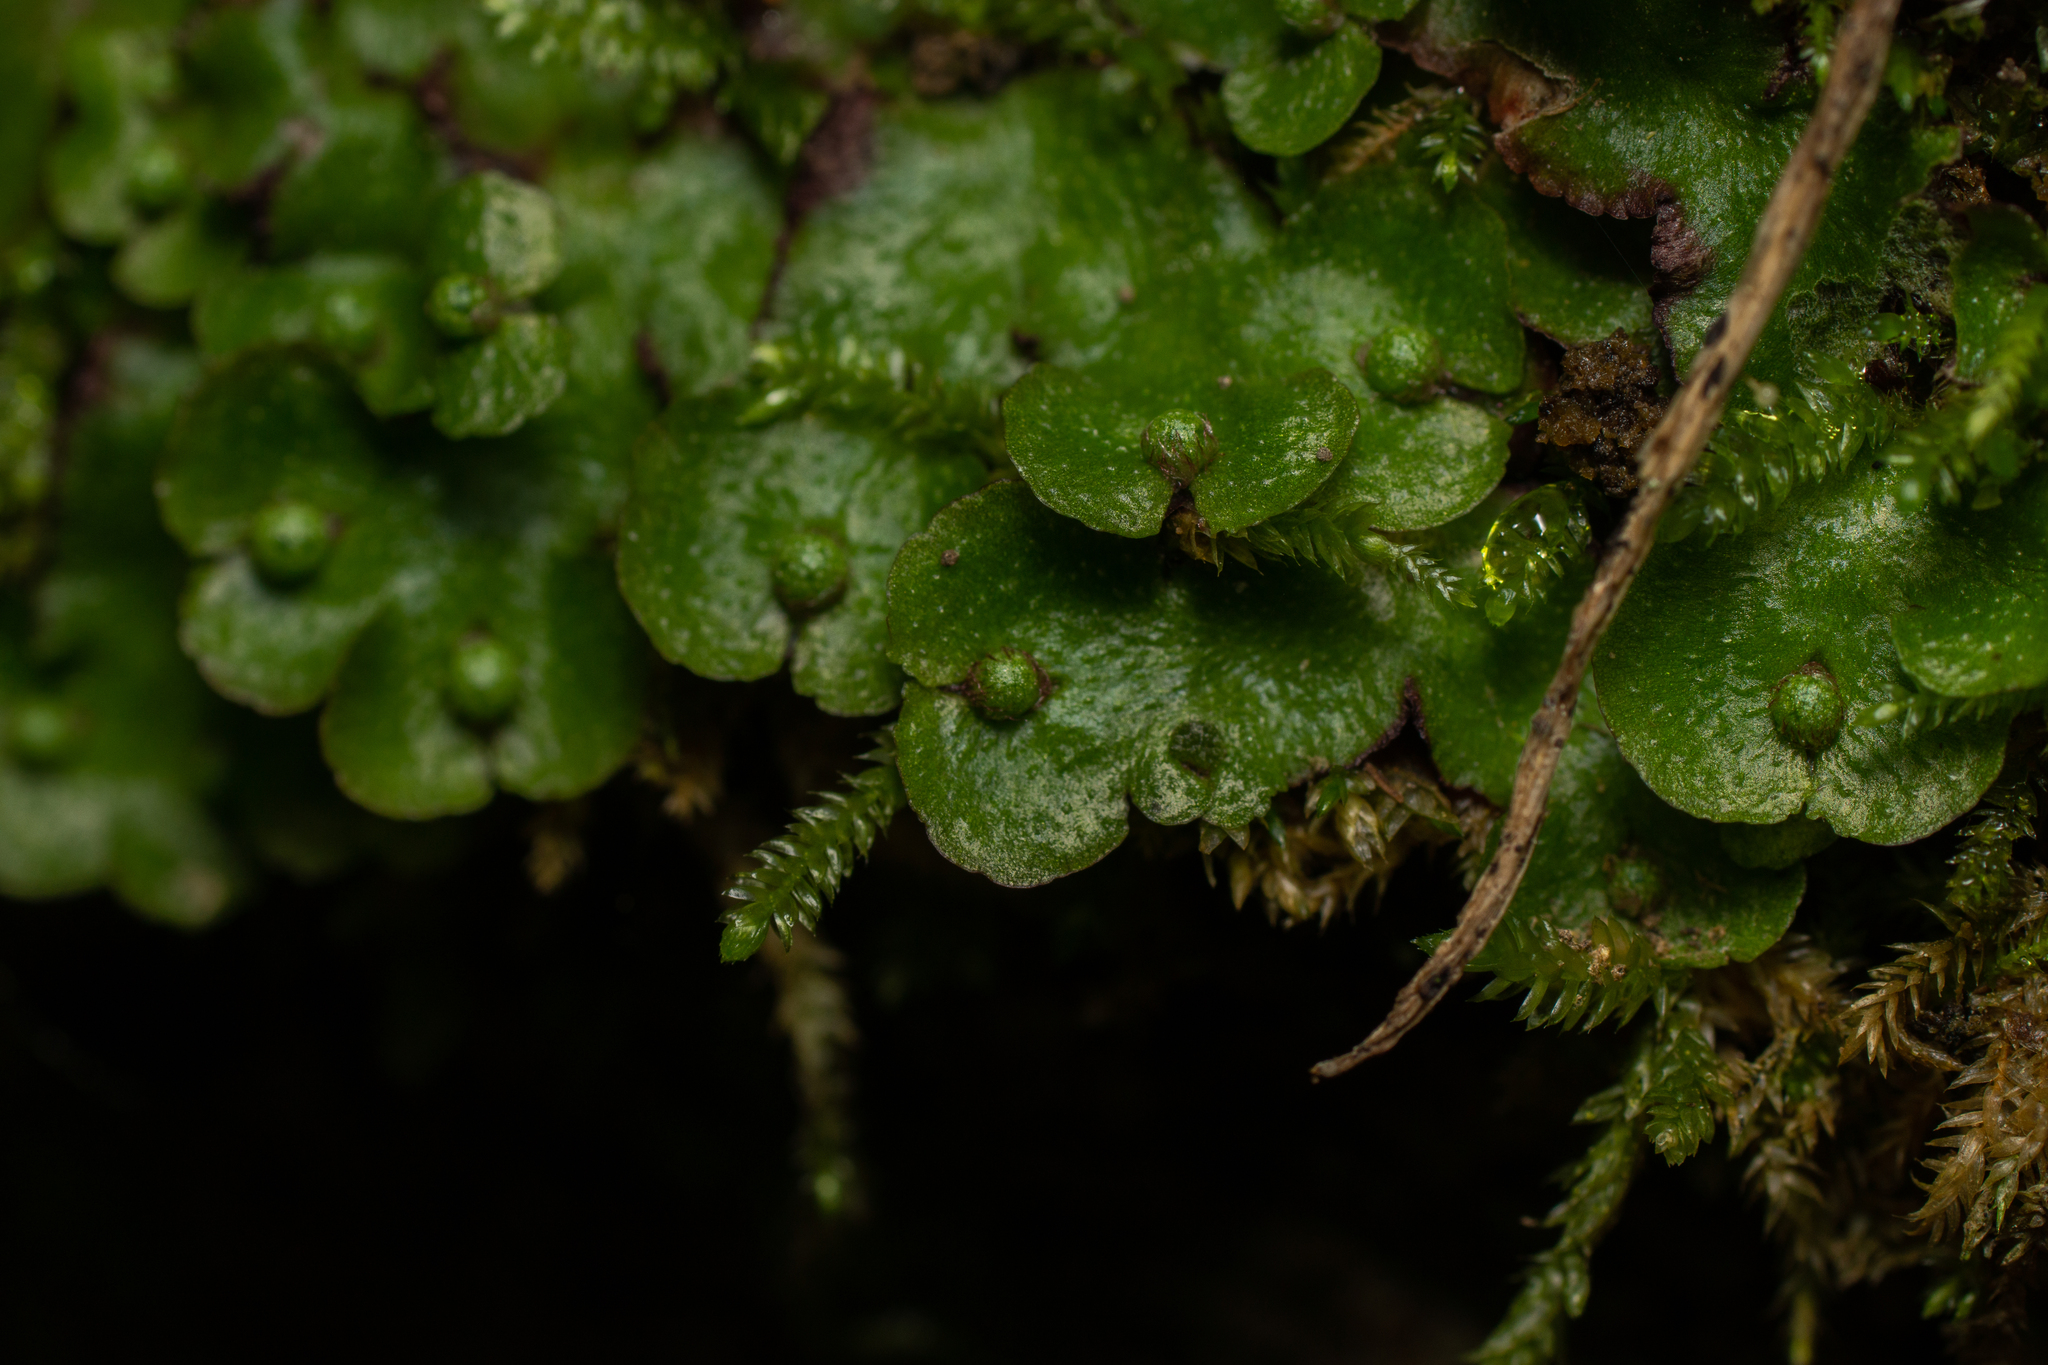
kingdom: Plantae
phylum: Marchantiophyta
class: Marchantiopsida
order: Marchantiales
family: Aytoniaceae
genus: Reboulia
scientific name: Reboulia hemisphaerica
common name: Purple-margined liverwort
